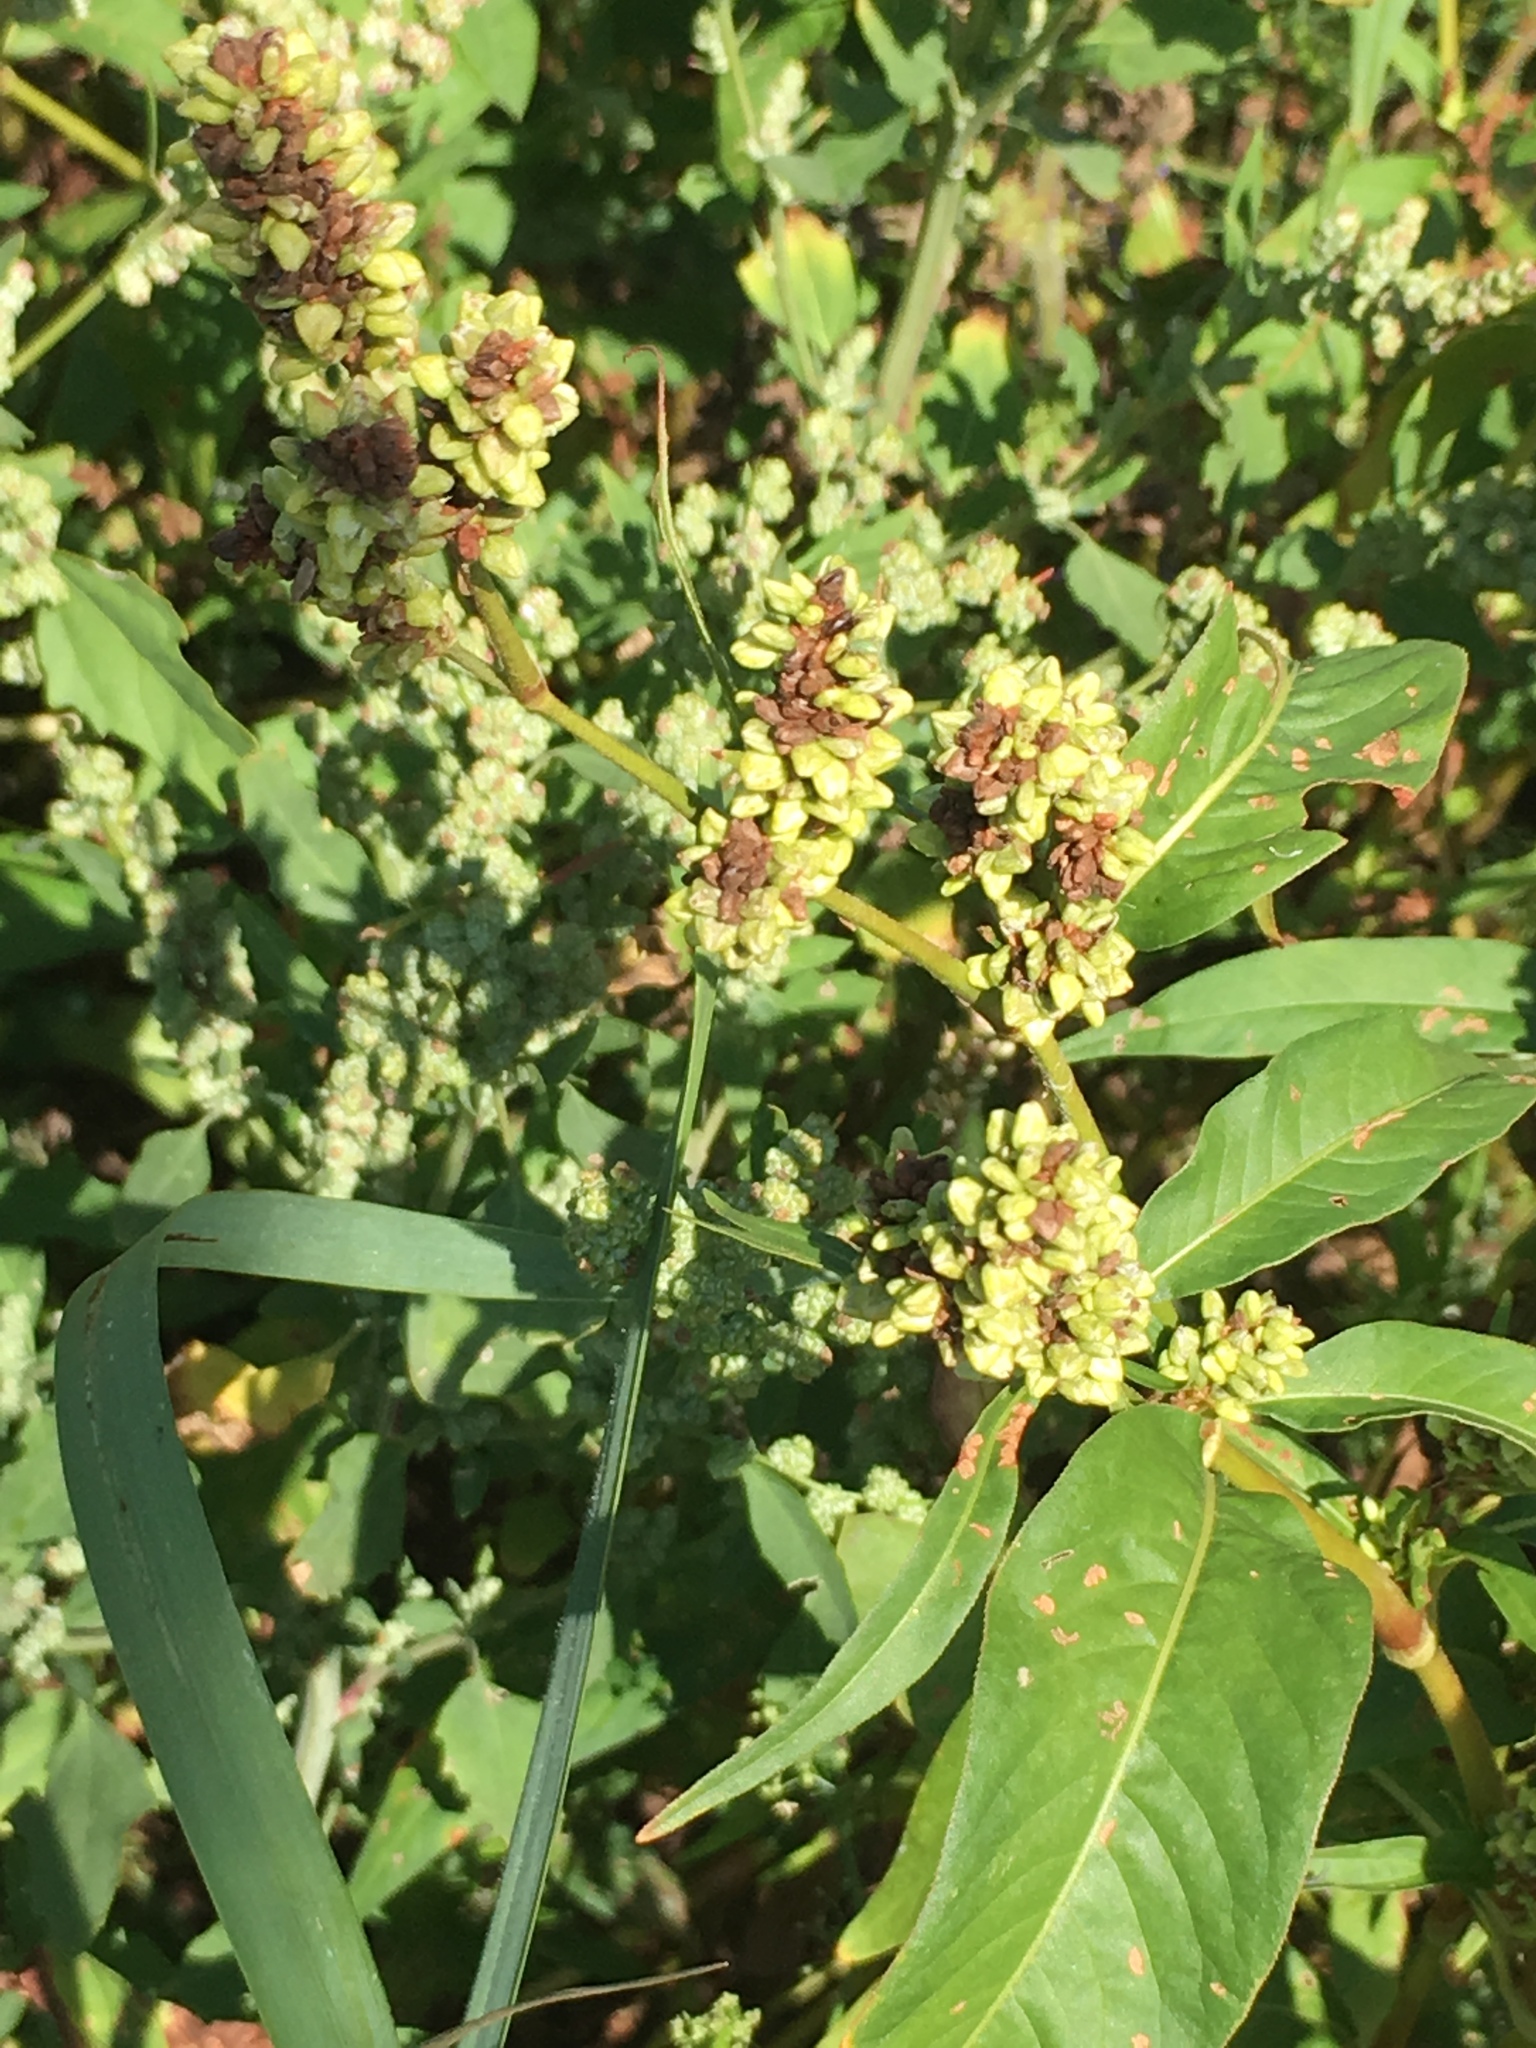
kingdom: Plantae
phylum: Tracheophyta
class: Magnoliopsida
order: Caryophyllales
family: Polygonaceae
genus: Persicaria
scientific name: Persicaria lapathifolia
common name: Curlytop knotweed
